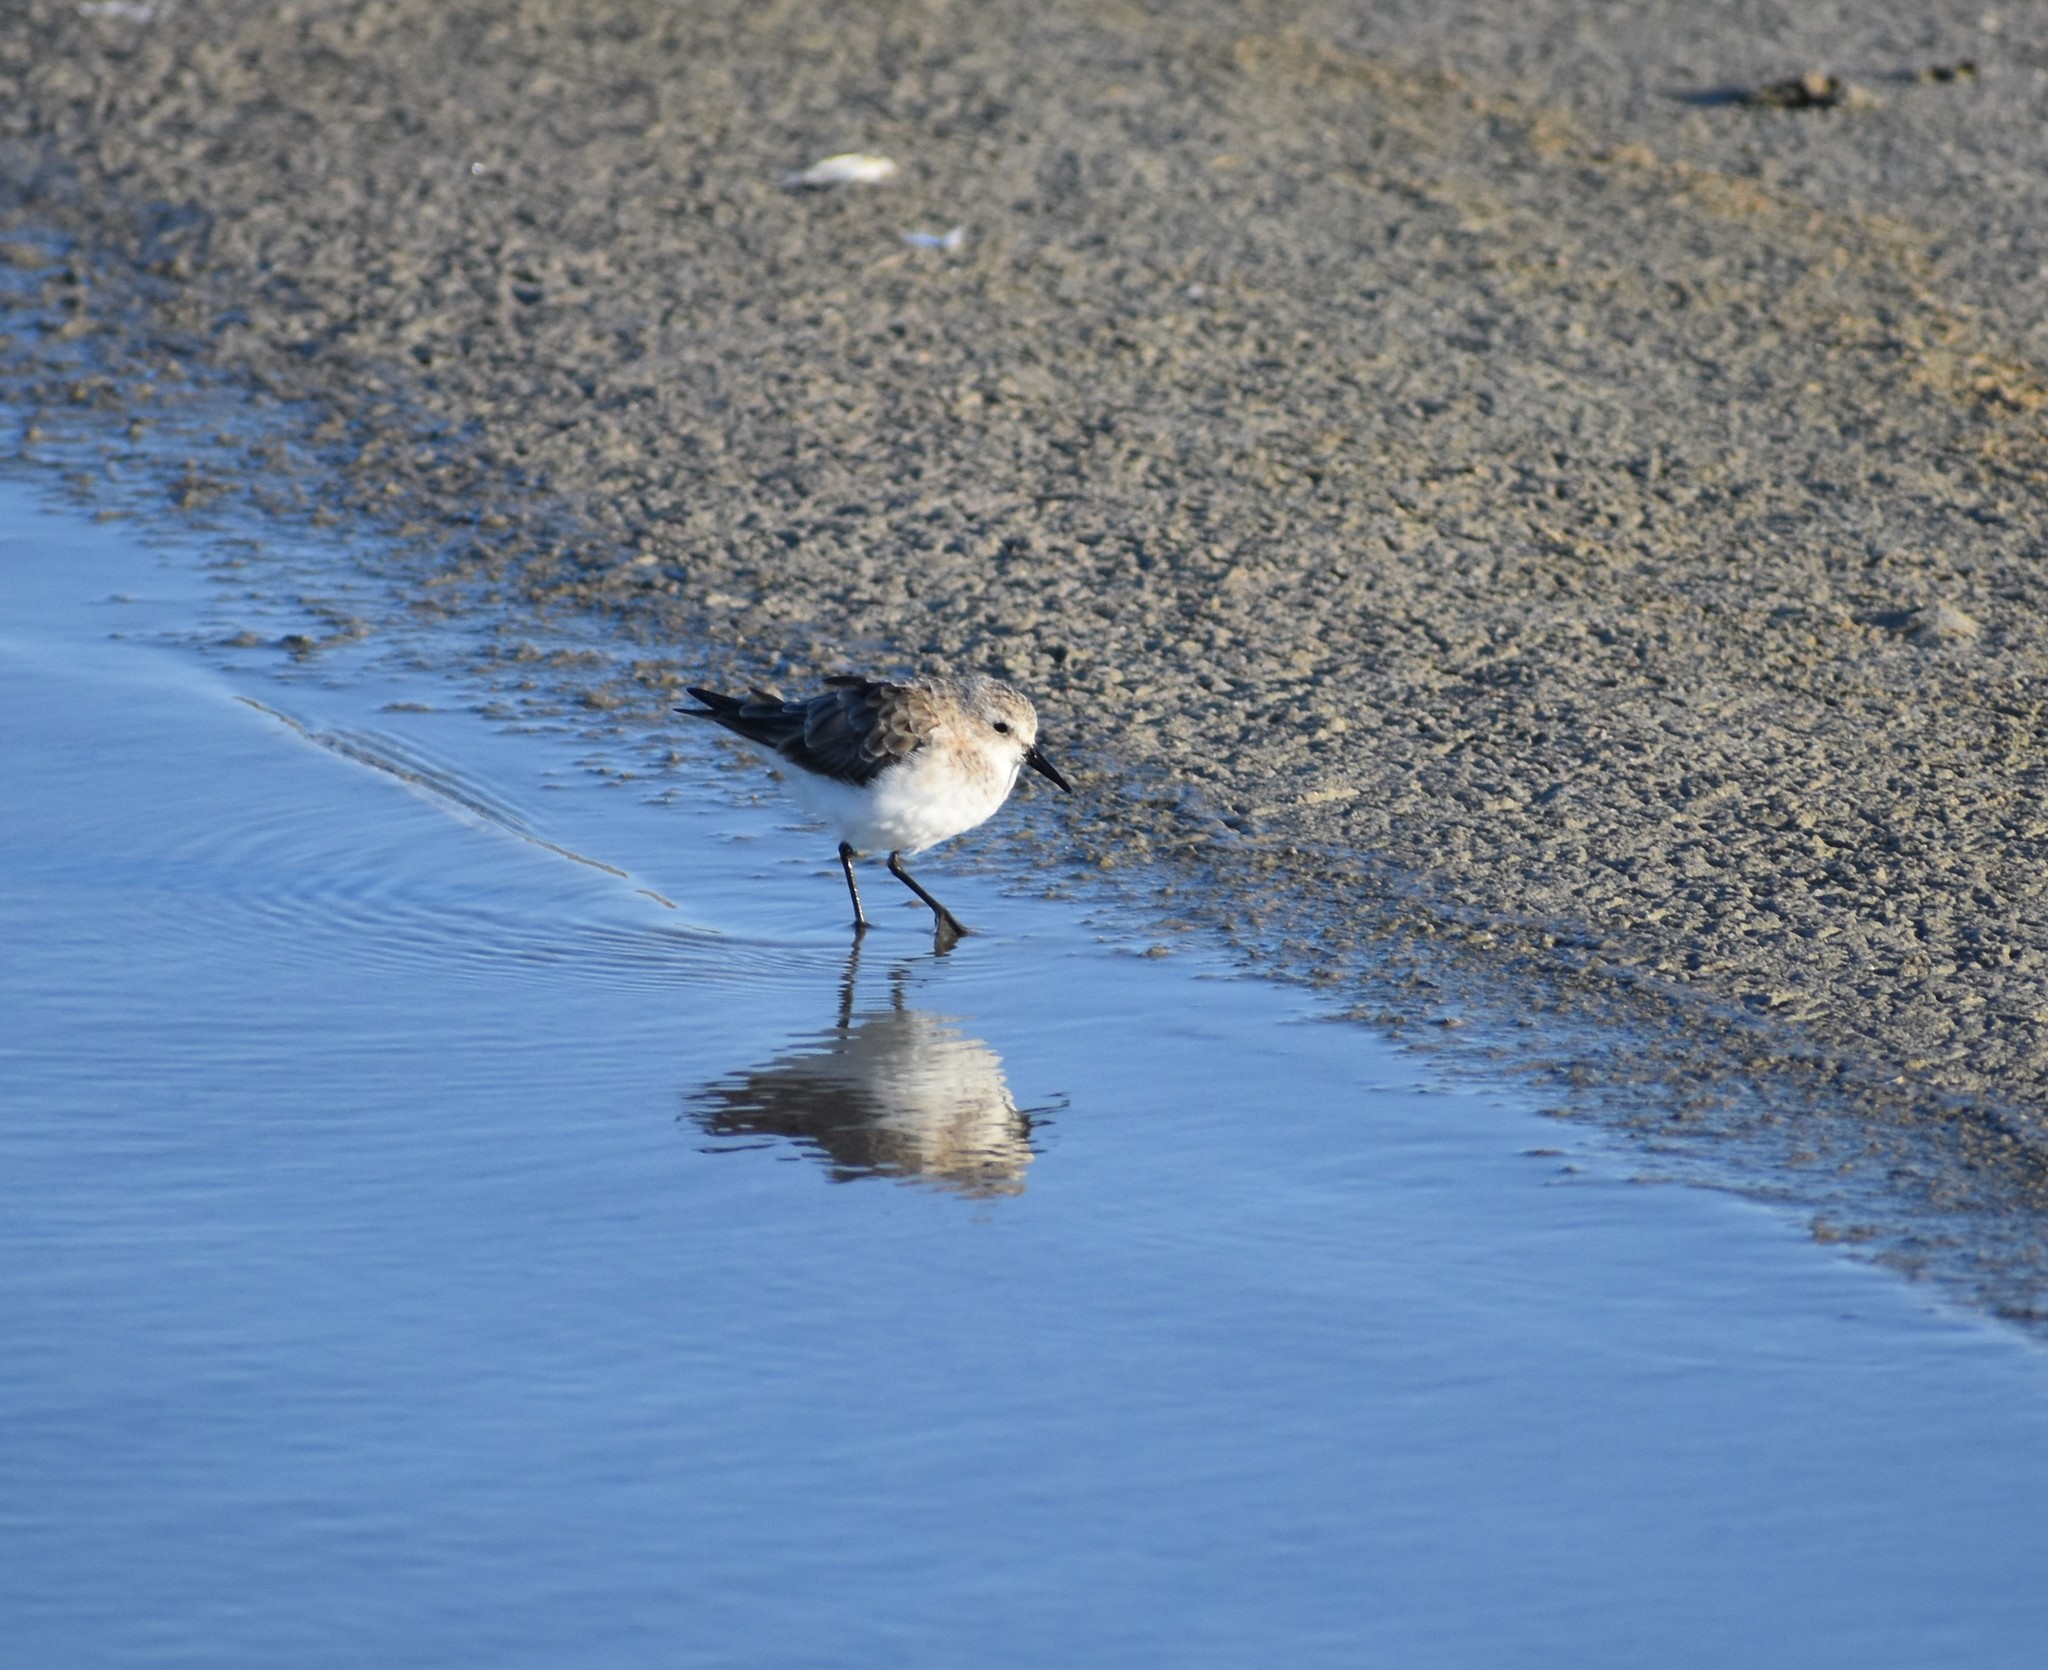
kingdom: Animalia
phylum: Chordata
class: Aves
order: Charadriiformes
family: Scolopacidae
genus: Calidris
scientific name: Calidris minuta
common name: Little stint
